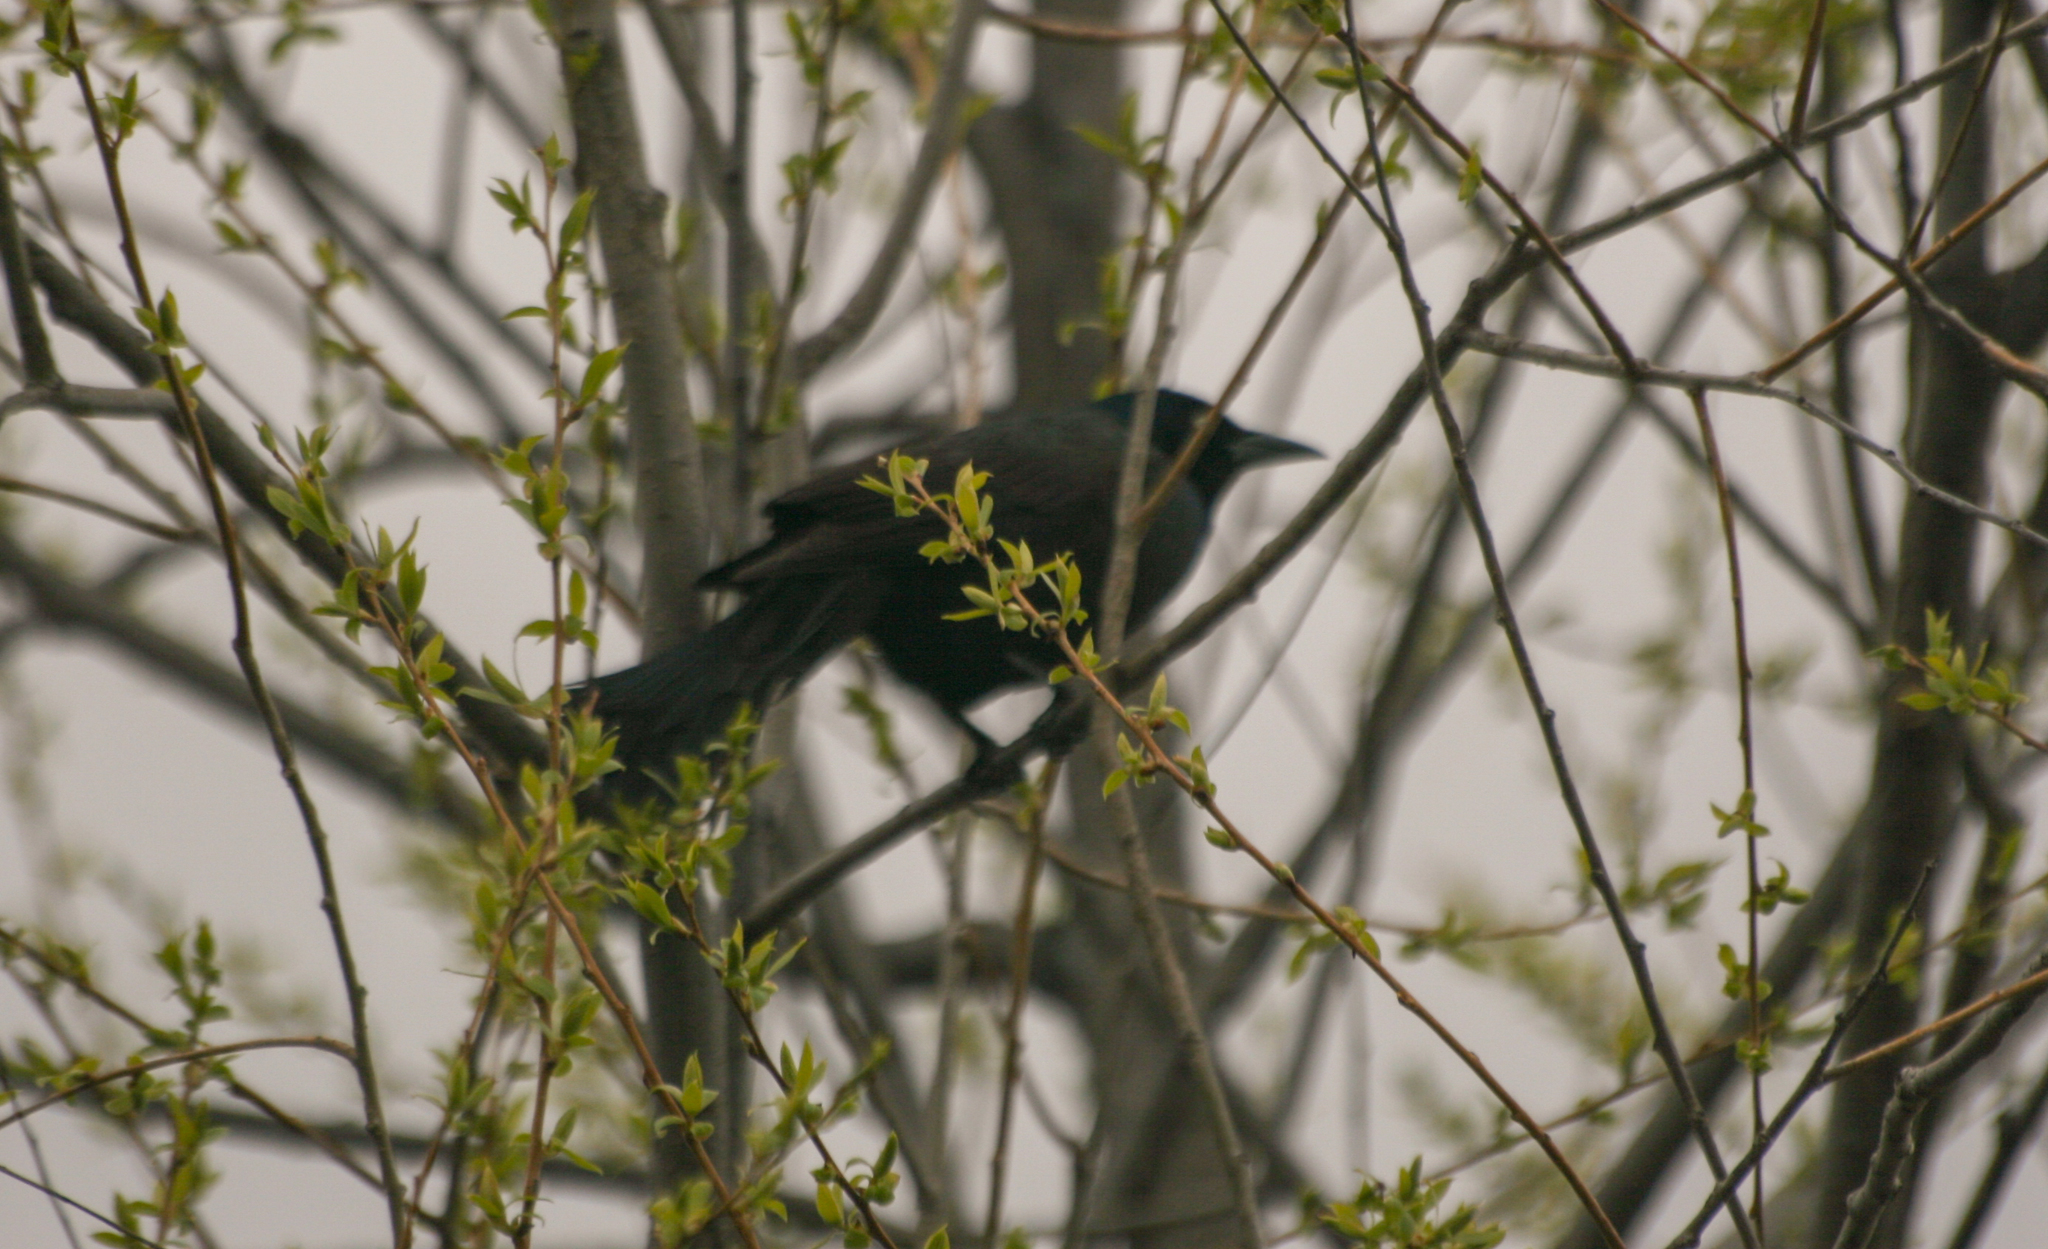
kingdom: Animalia
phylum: Chordata
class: Aves
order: Passeriformes
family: Icteridae
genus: Quiscalus
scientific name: Quiscalus quiscula
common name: Common grackle
